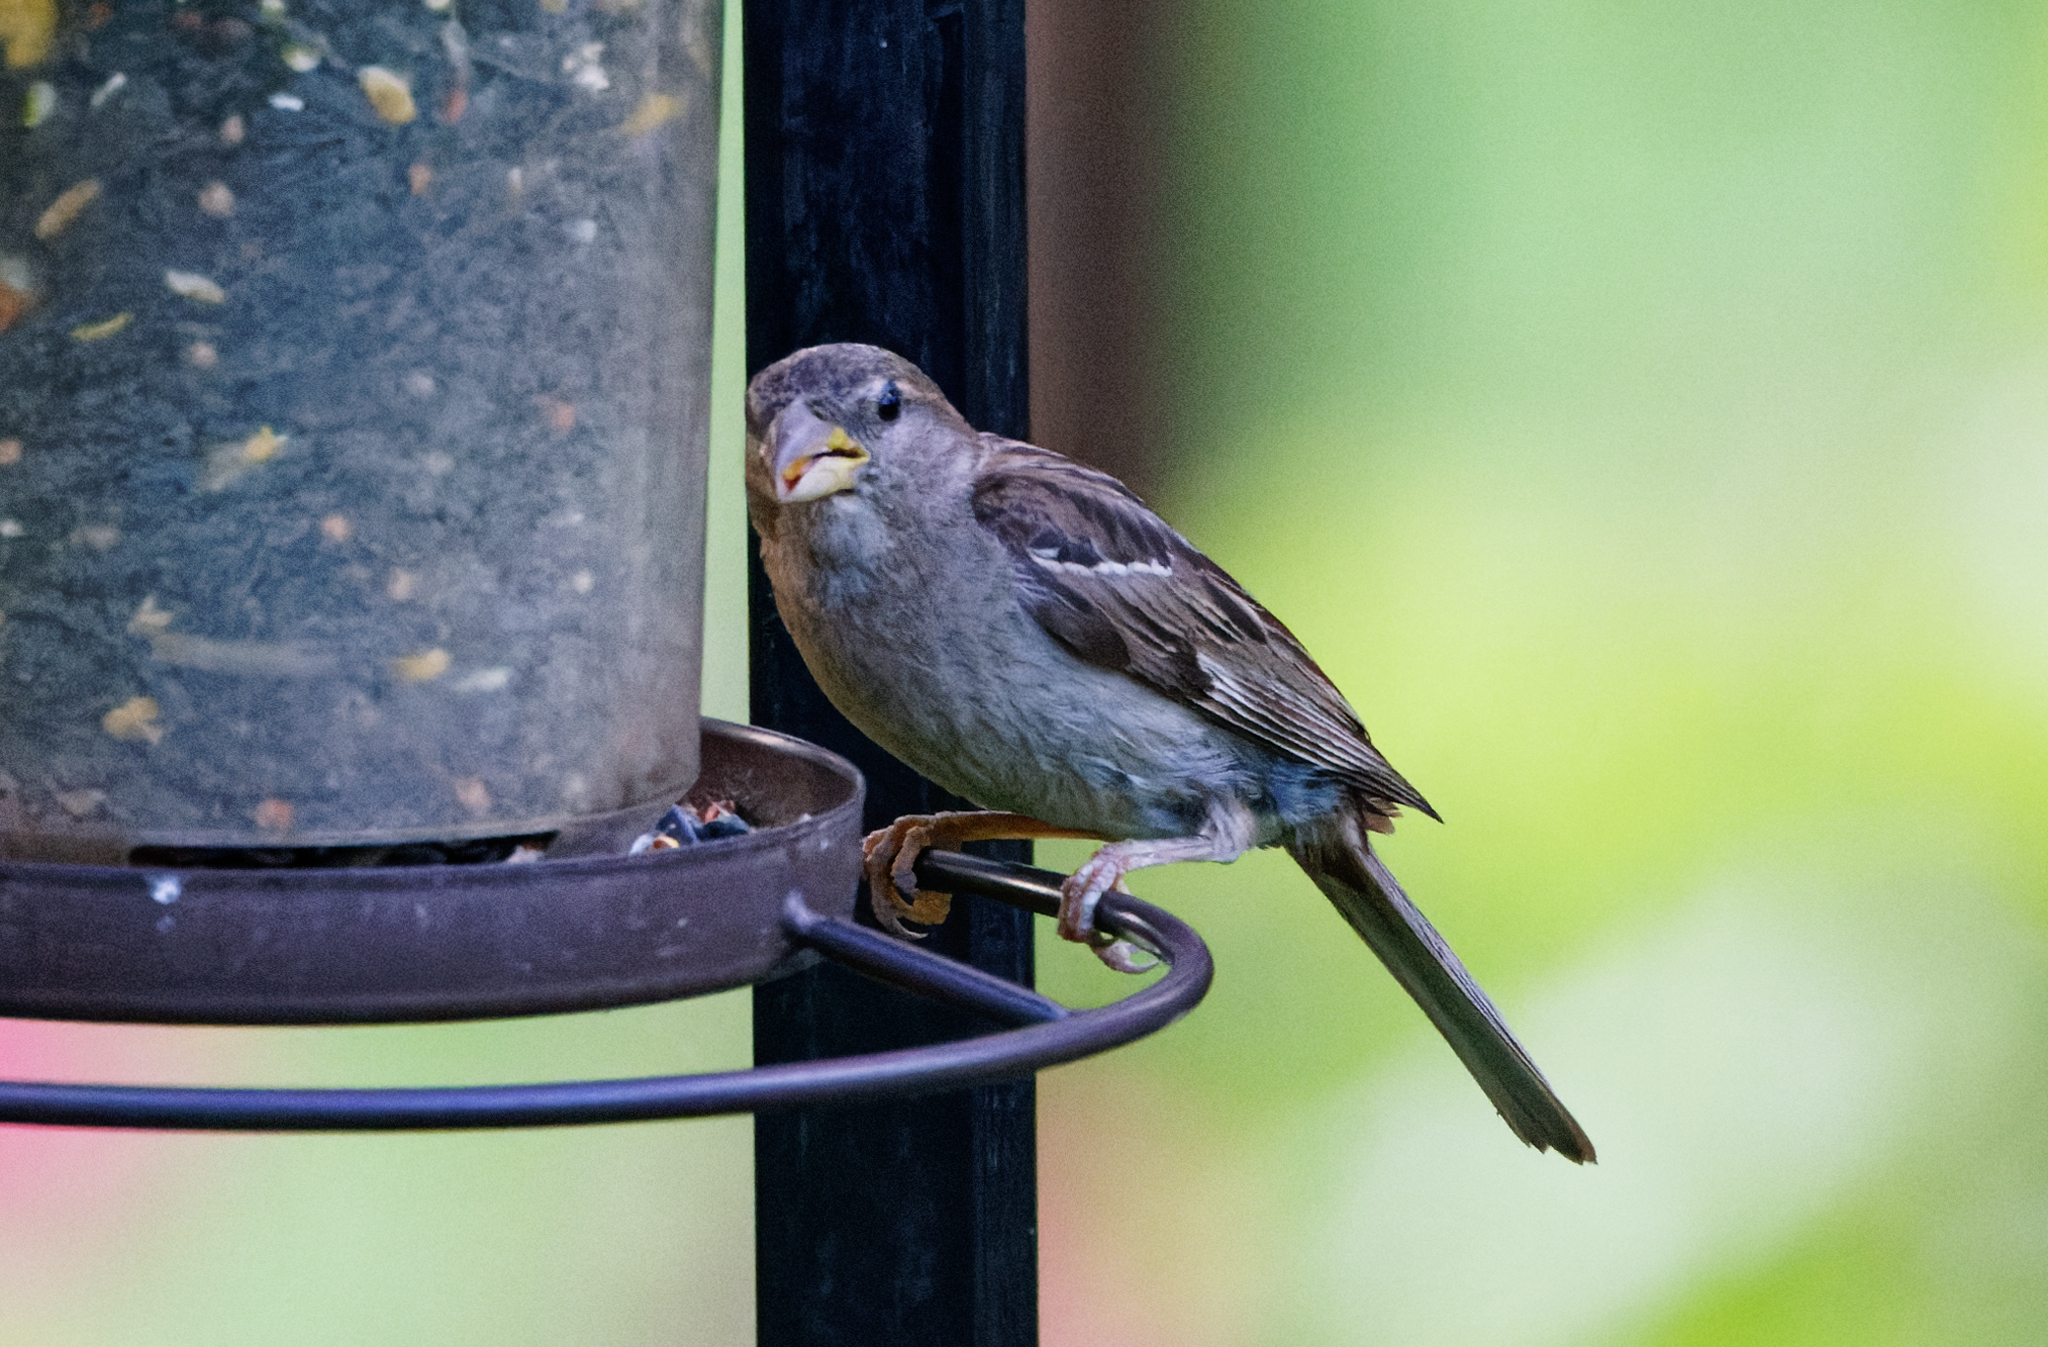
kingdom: Animalia
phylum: Chordata
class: Aves
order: Passeriformes
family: Passeridae
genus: Passer
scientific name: Passer domesticus
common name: House sparrow
